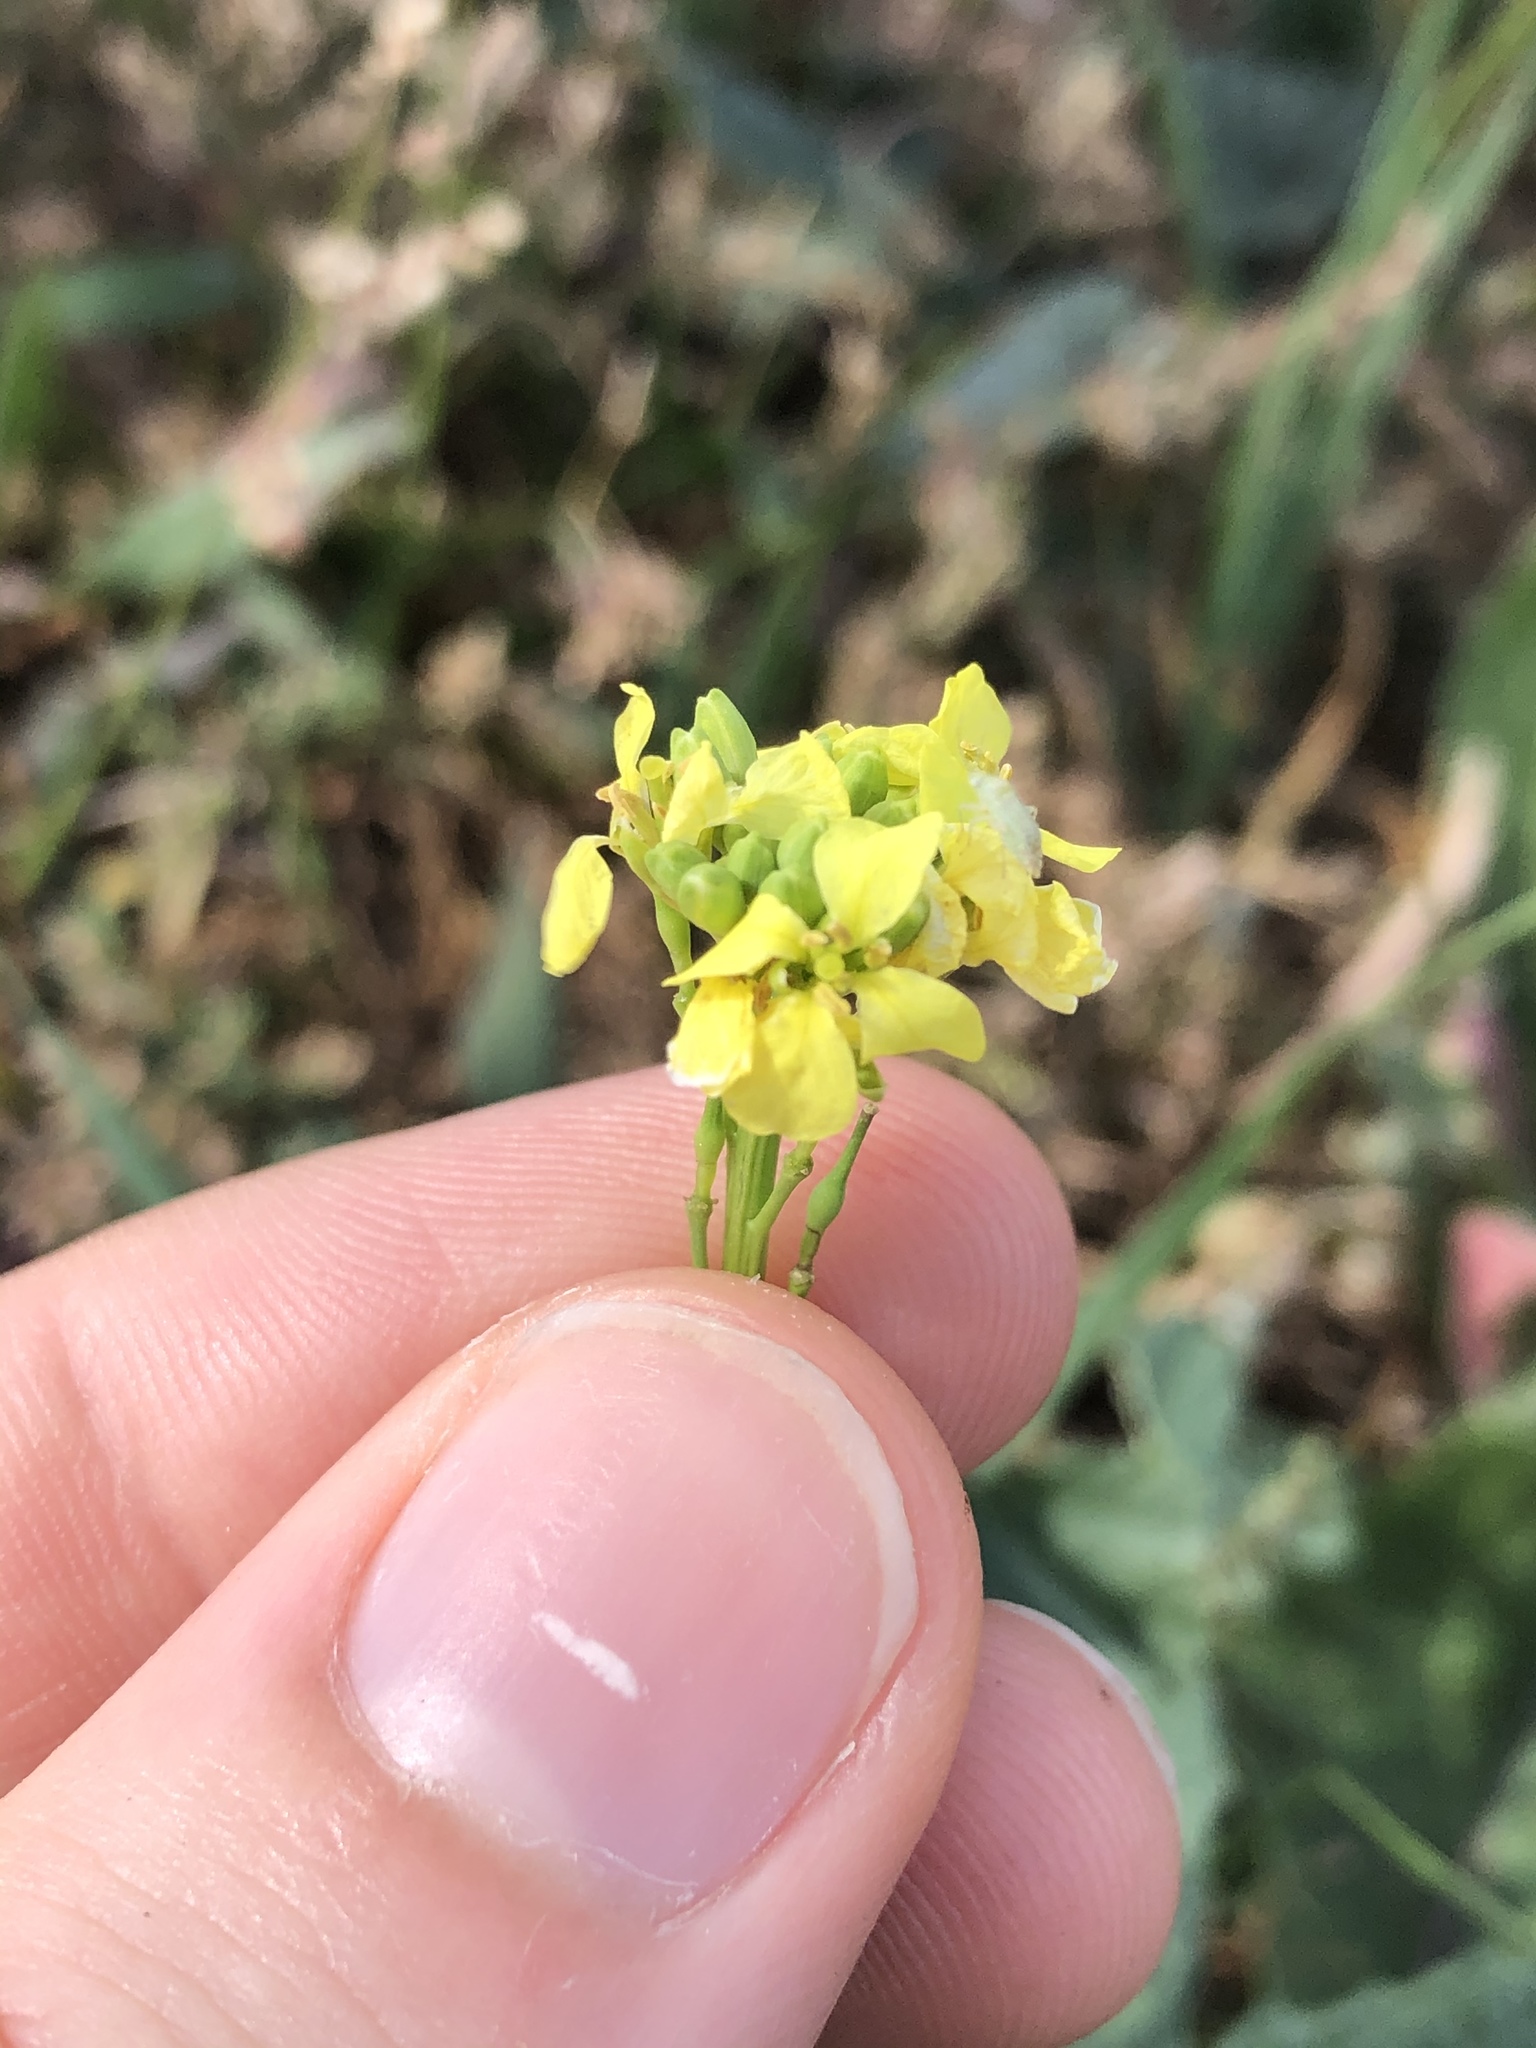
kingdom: Plantae
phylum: Tracheophyta
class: Magnoliopsida
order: Brassicales
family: Brassicaceae
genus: Rapistrum
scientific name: Rapistrum rugosum
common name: Annual bastardcabbage
